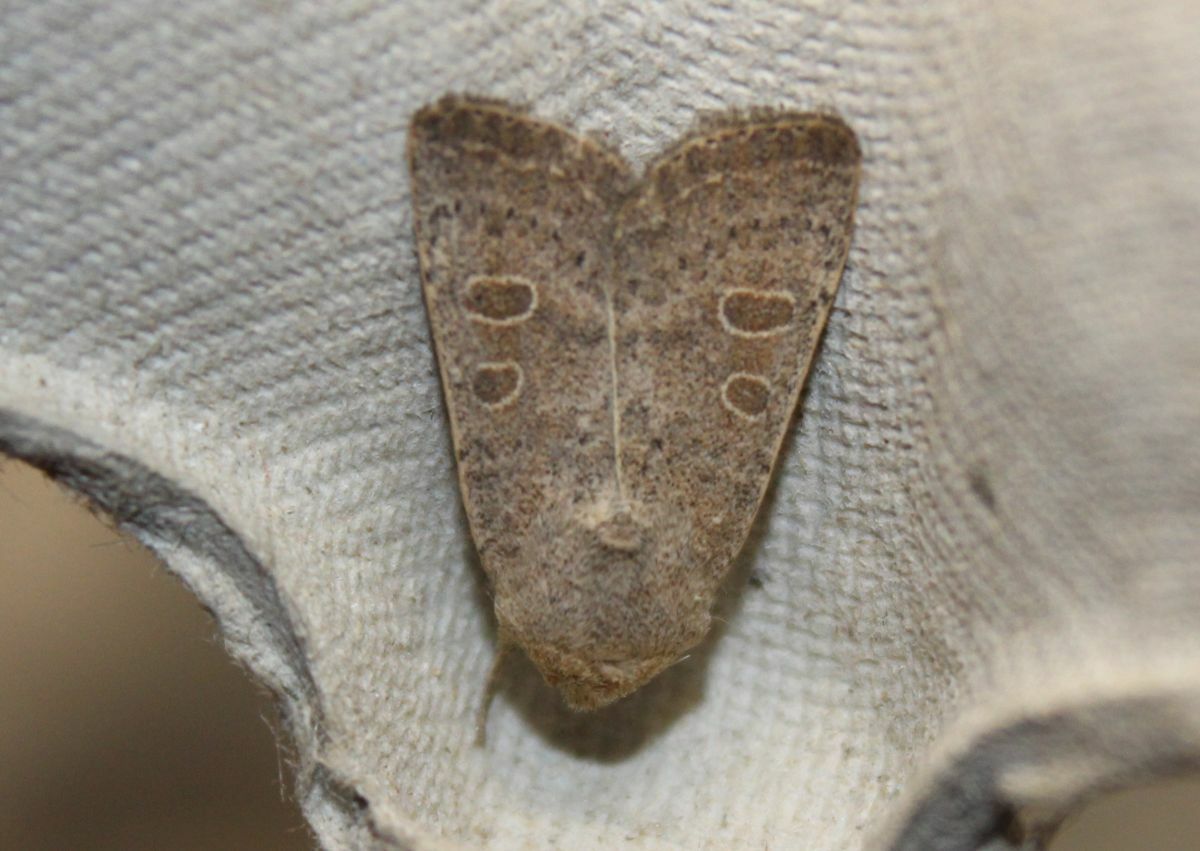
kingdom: Animalia
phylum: Arthropoda
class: Insecta
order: Lepidoptera
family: Noctuidae
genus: Hoplodrina
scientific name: Hoplodrina ambigua
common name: Vine's rustic
